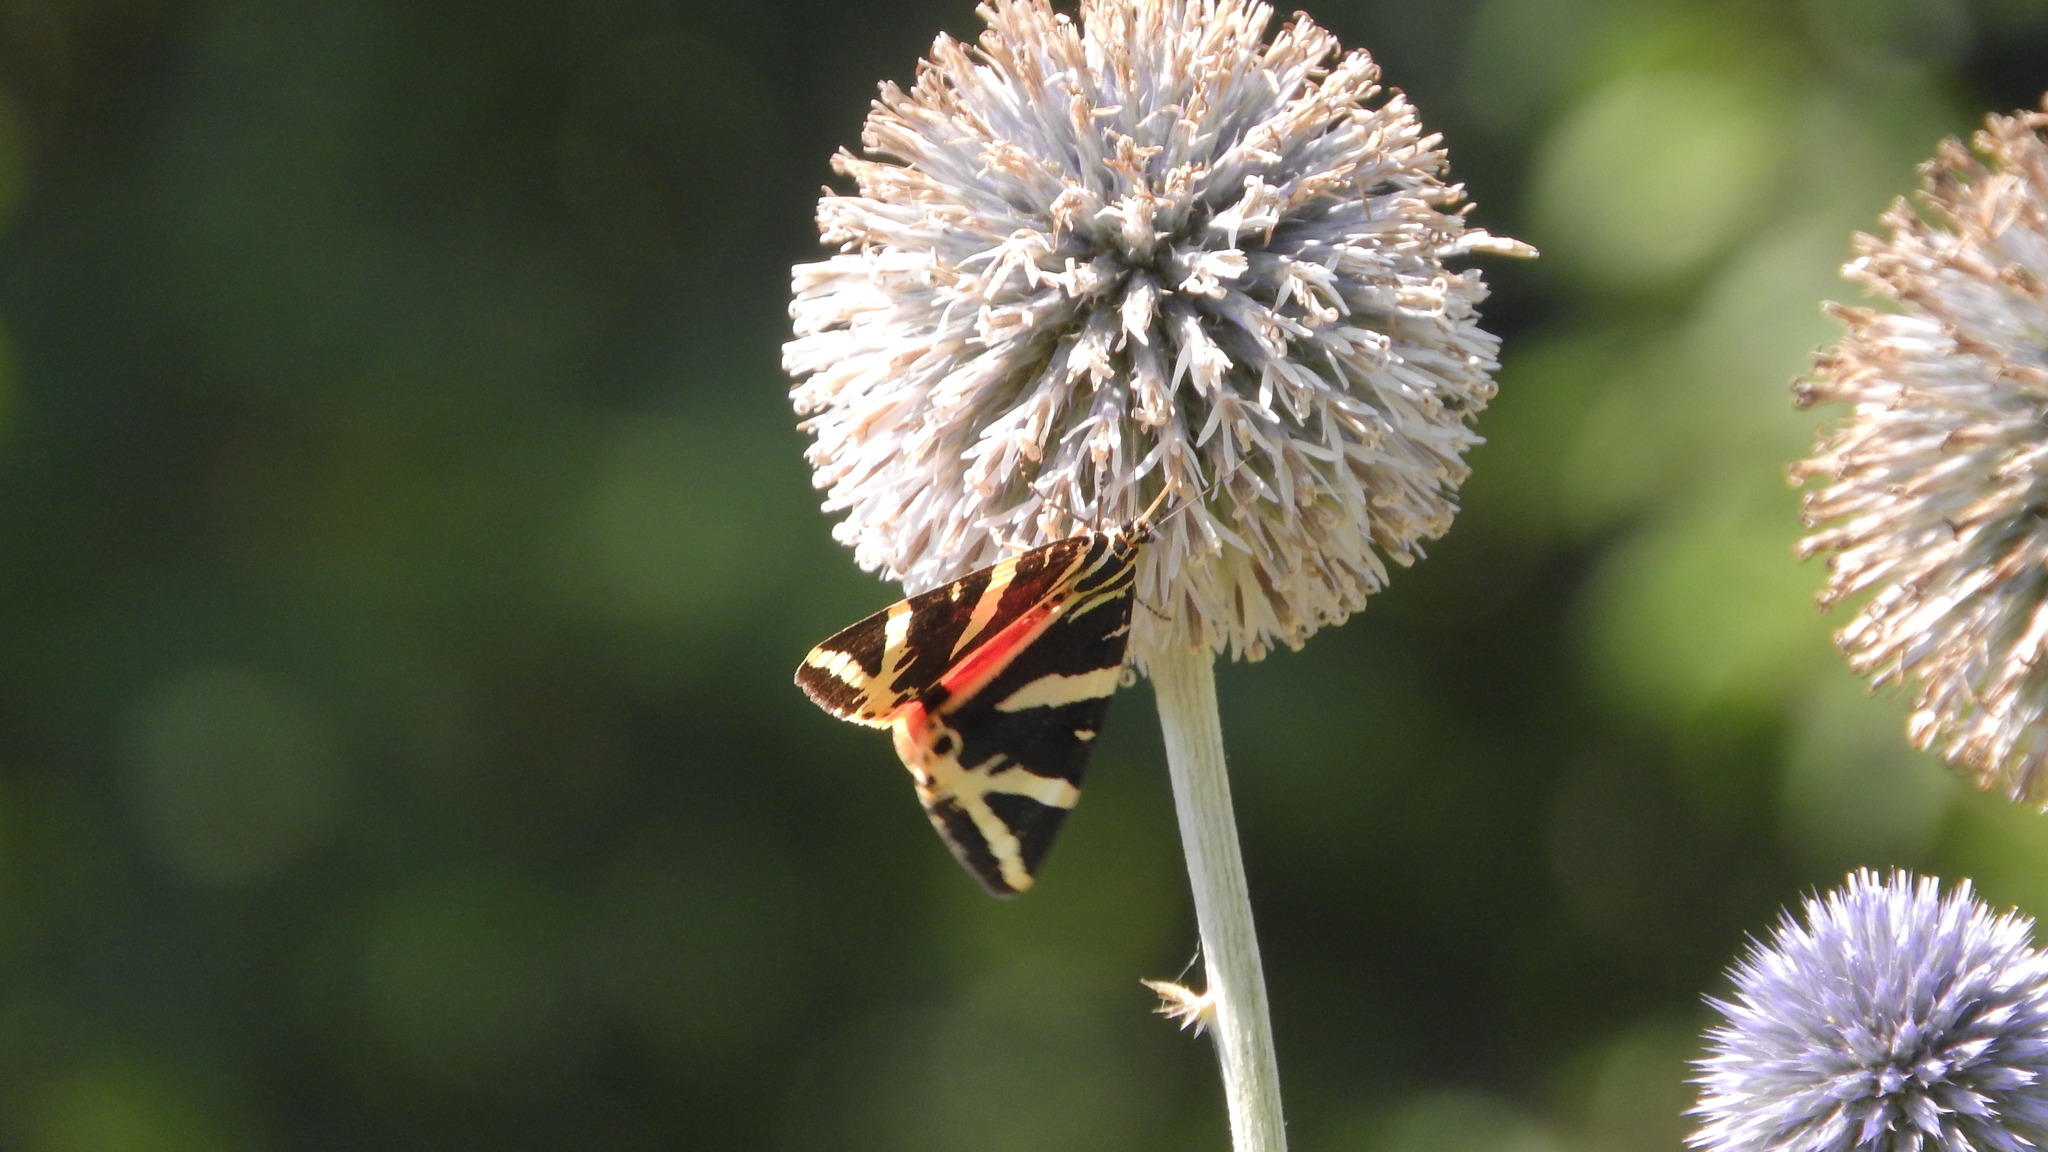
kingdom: Animalia
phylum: Arthropoda
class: Insecta
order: Lepidoptera
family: Erebidae
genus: Euplagia
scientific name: Euplagia quadripunctaria
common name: Jersey tiger
